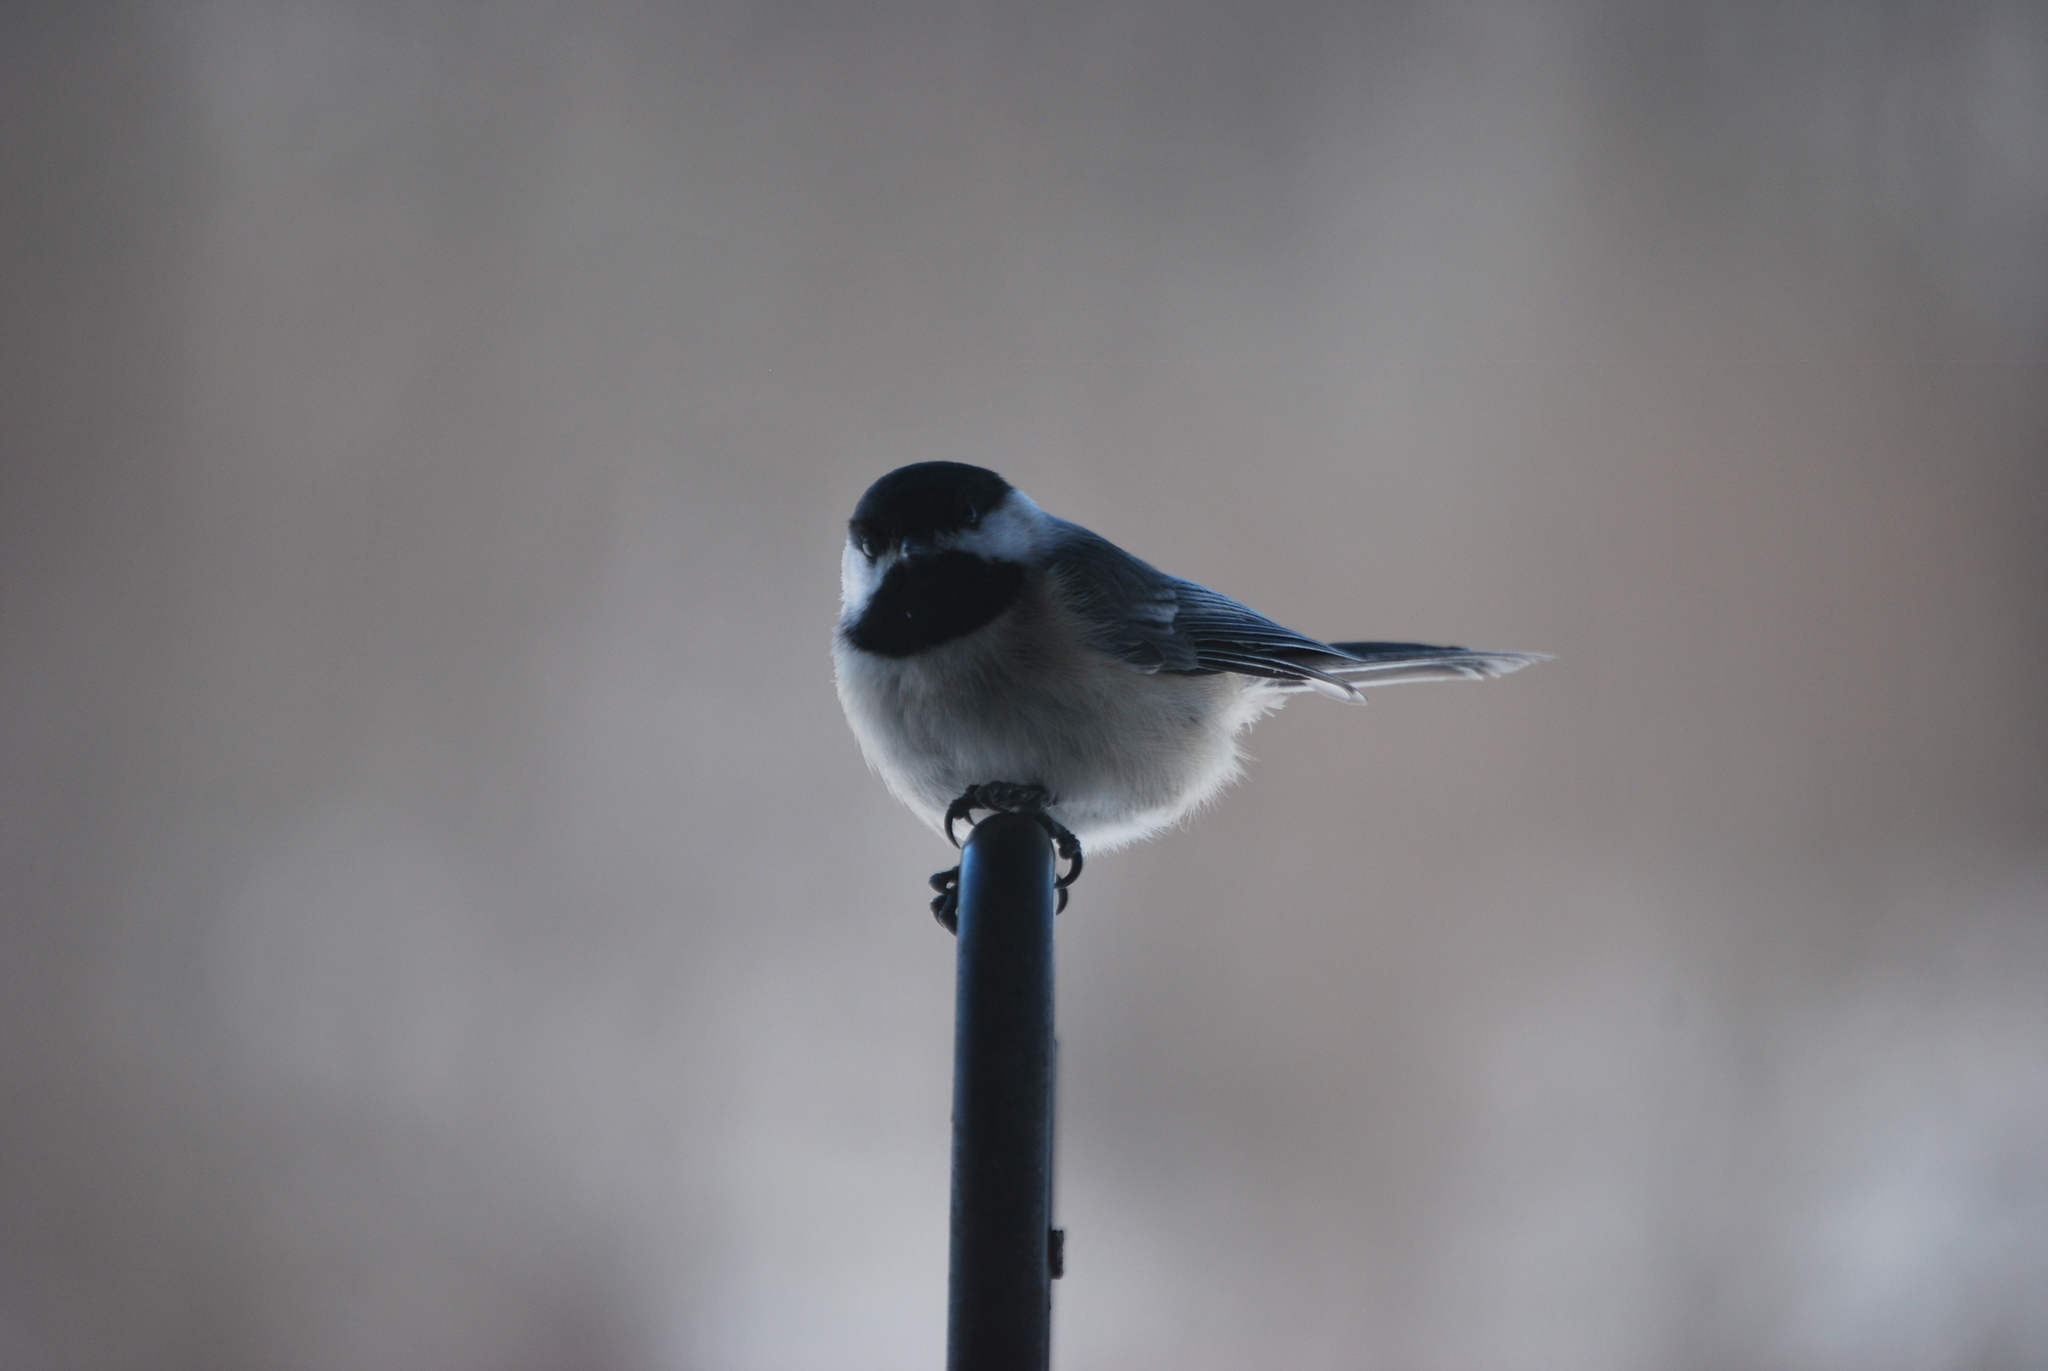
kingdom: Animalia
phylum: Chordata
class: Aves
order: Passeriformes
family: Paridae
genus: Poecile
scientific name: Poecile atricapillus
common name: Black-capped chickadee
